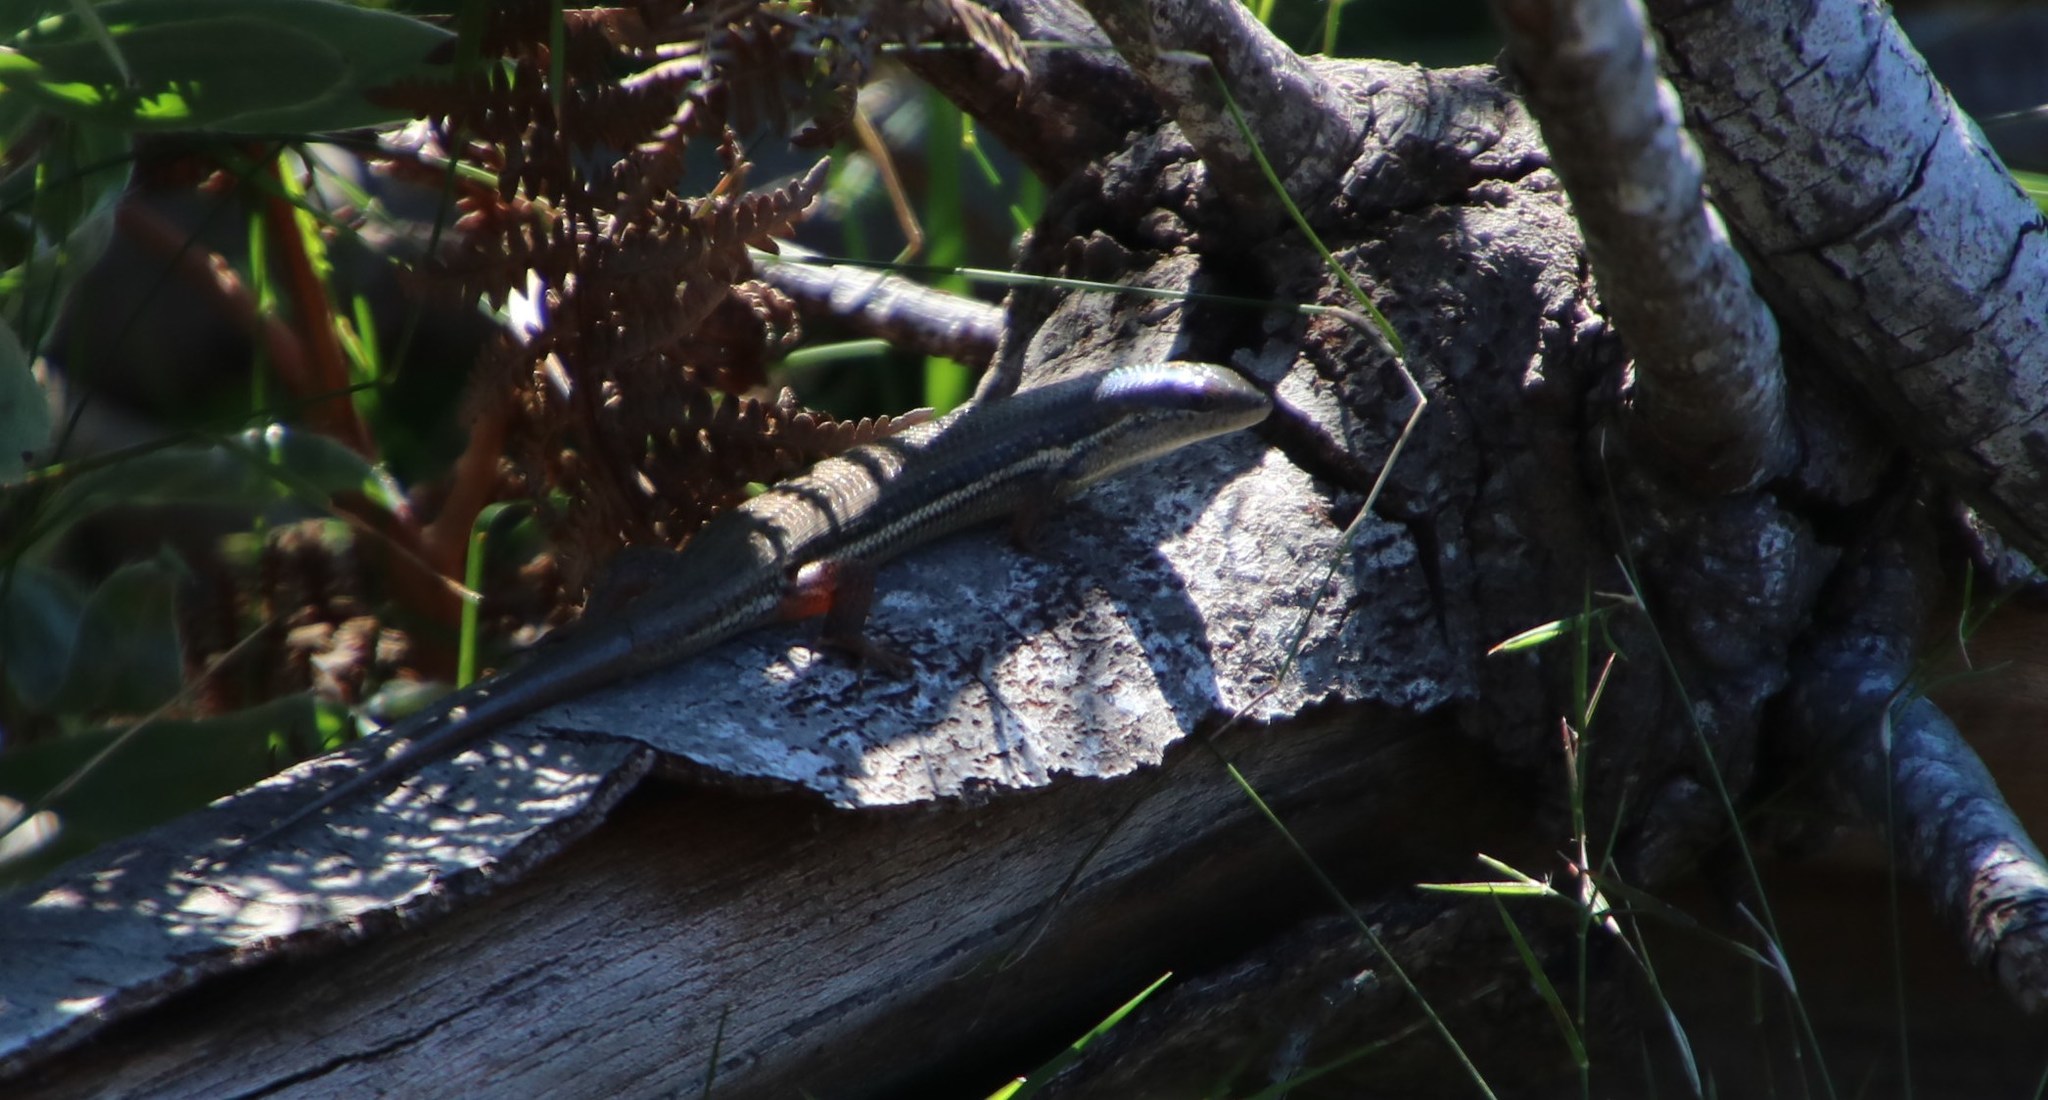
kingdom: Animalia
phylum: Chordata
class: Squamata
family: Scincidae
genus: Trachylepis
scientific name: Trachylepis homalocephala
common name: Red-sided skink
